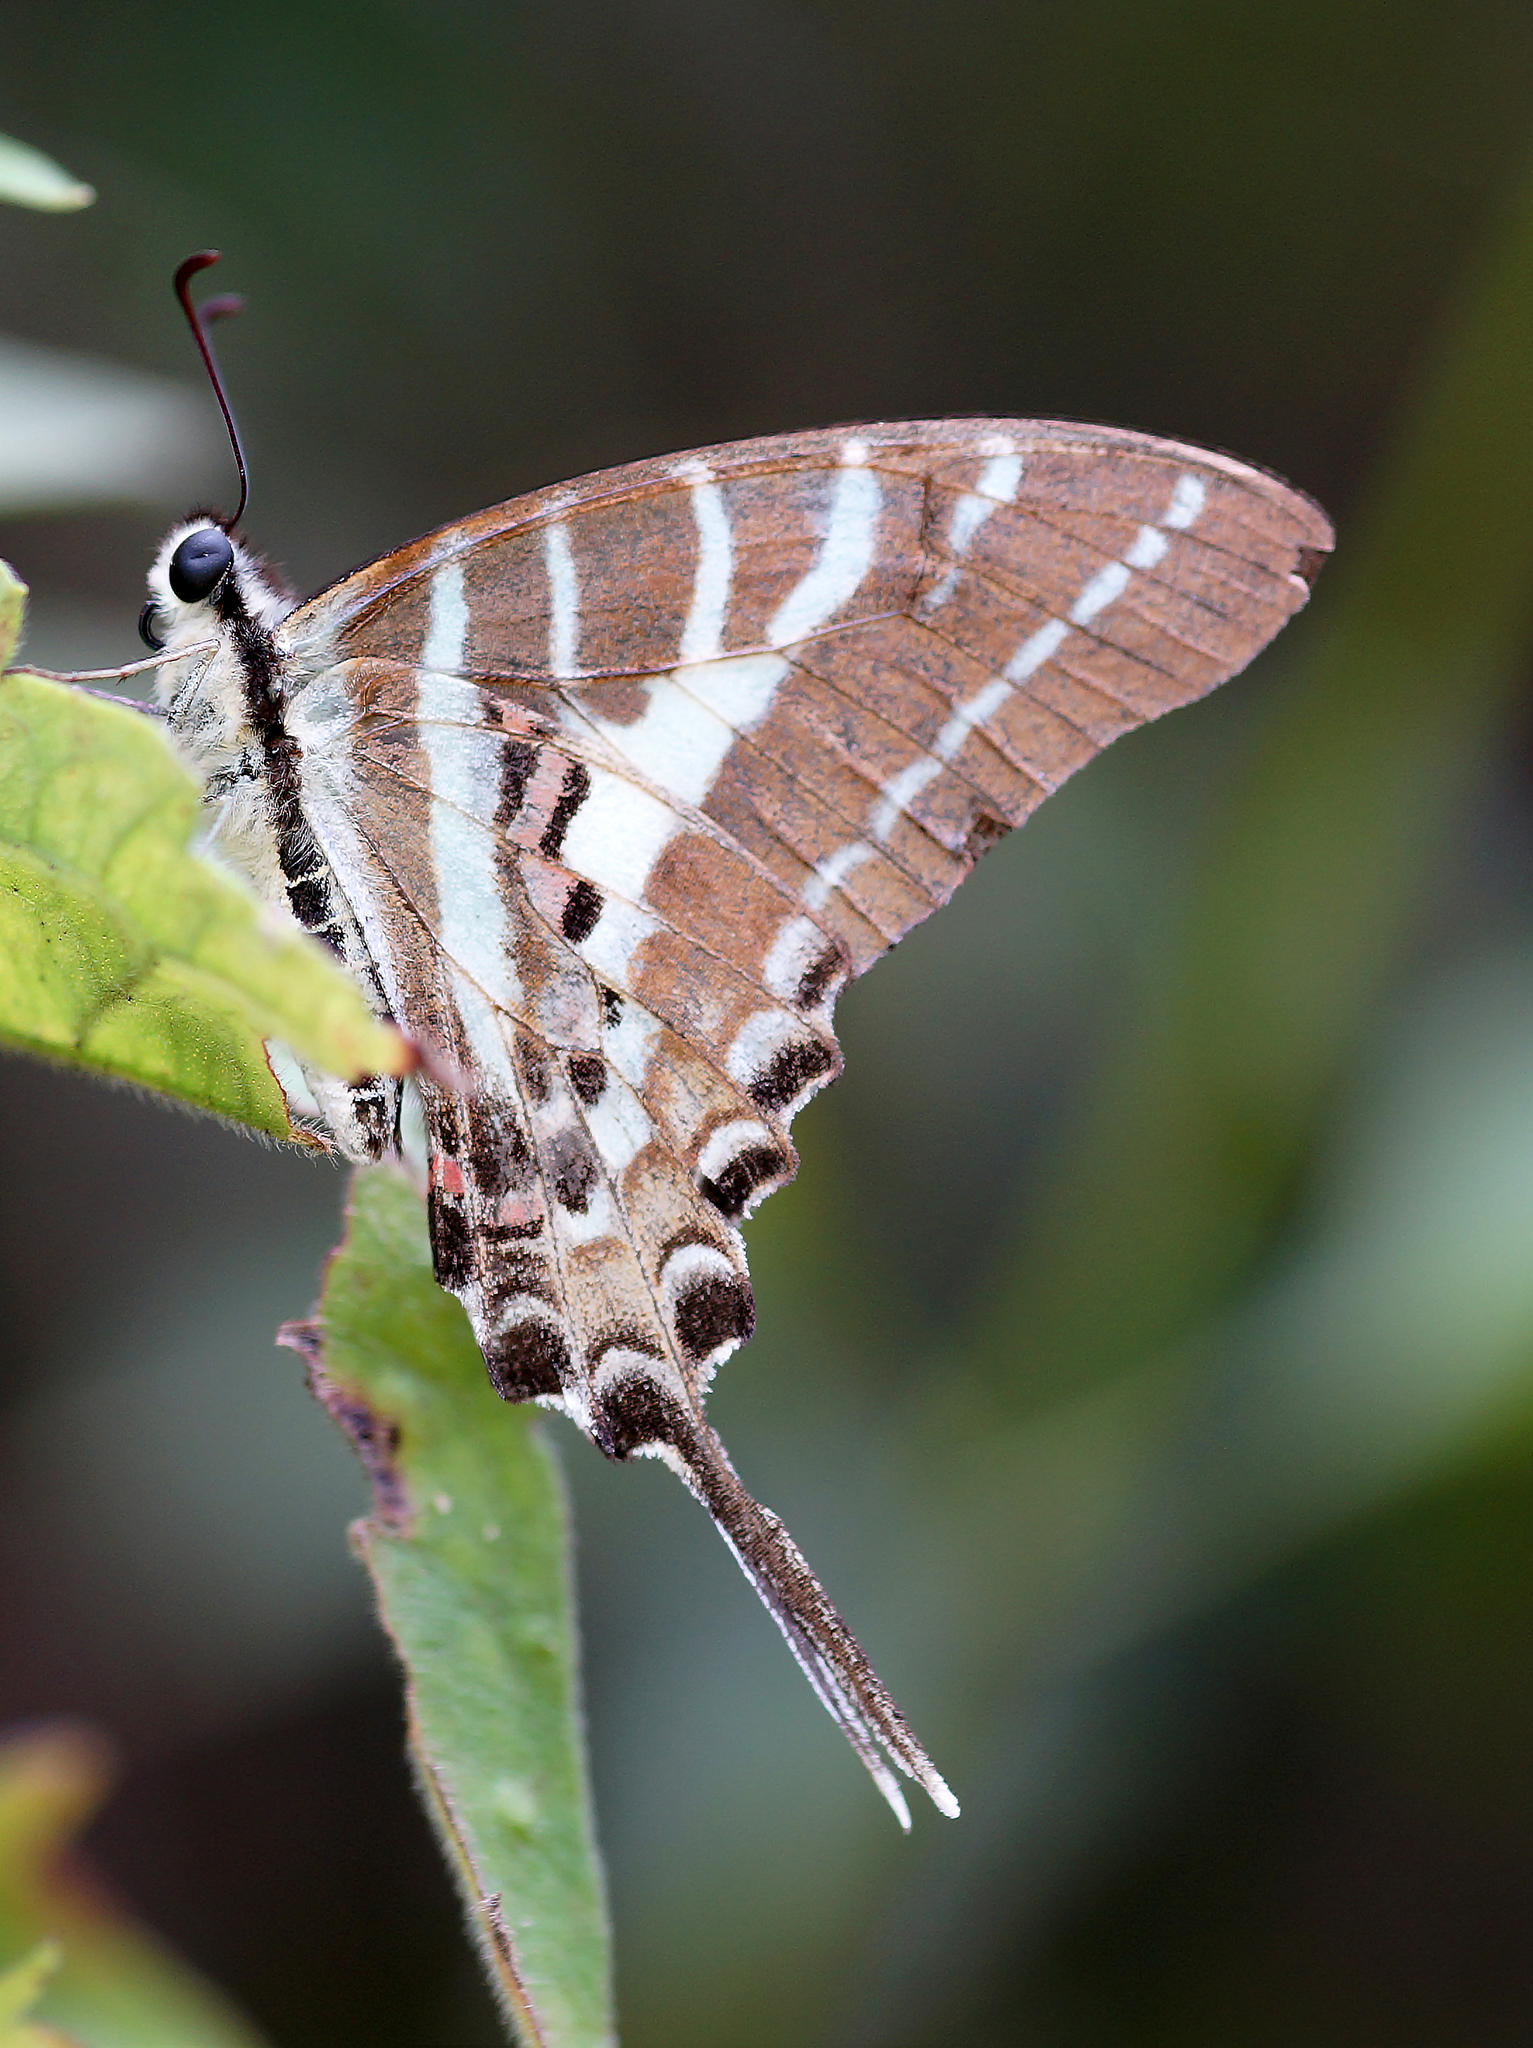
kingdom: Animalia
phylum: Arthropoda
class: Insecta
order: Lepidoptera
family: Papilionidae
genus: Graphium
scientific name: Graphium aristeus
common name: Chain swordtail
